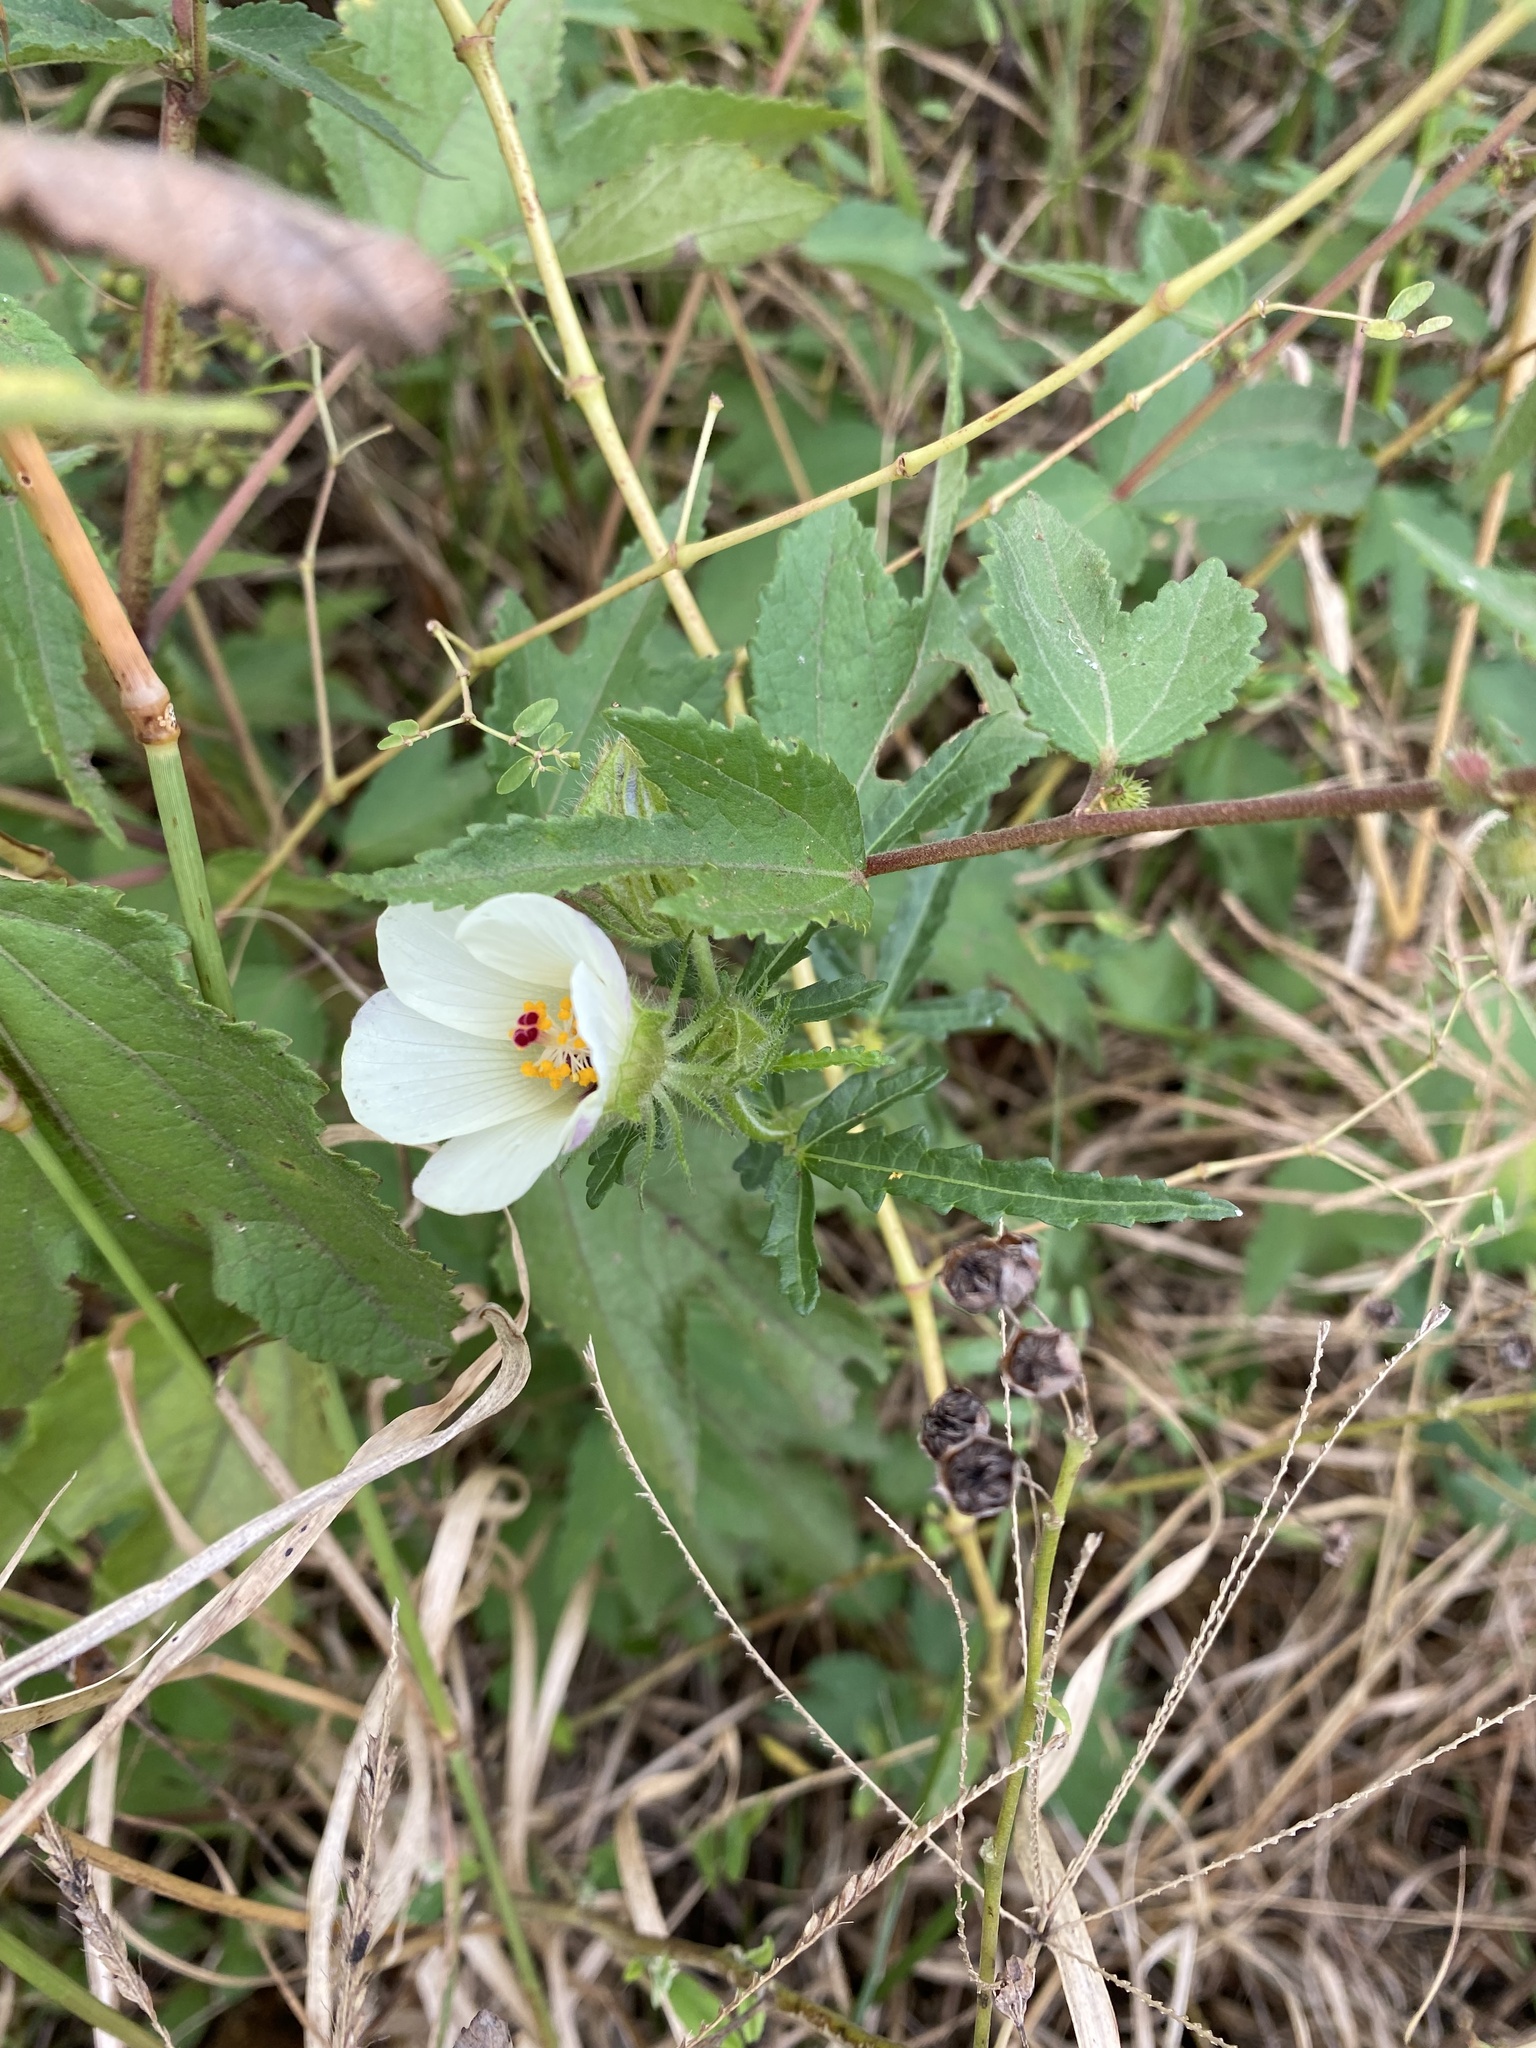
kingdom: Plantae
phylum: Tracheophyta
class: Magnoliopsida
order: Malvales
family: Malvaceae
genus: Hibiscus
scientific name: Hibiscus trionum
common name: Bladder ketmia
